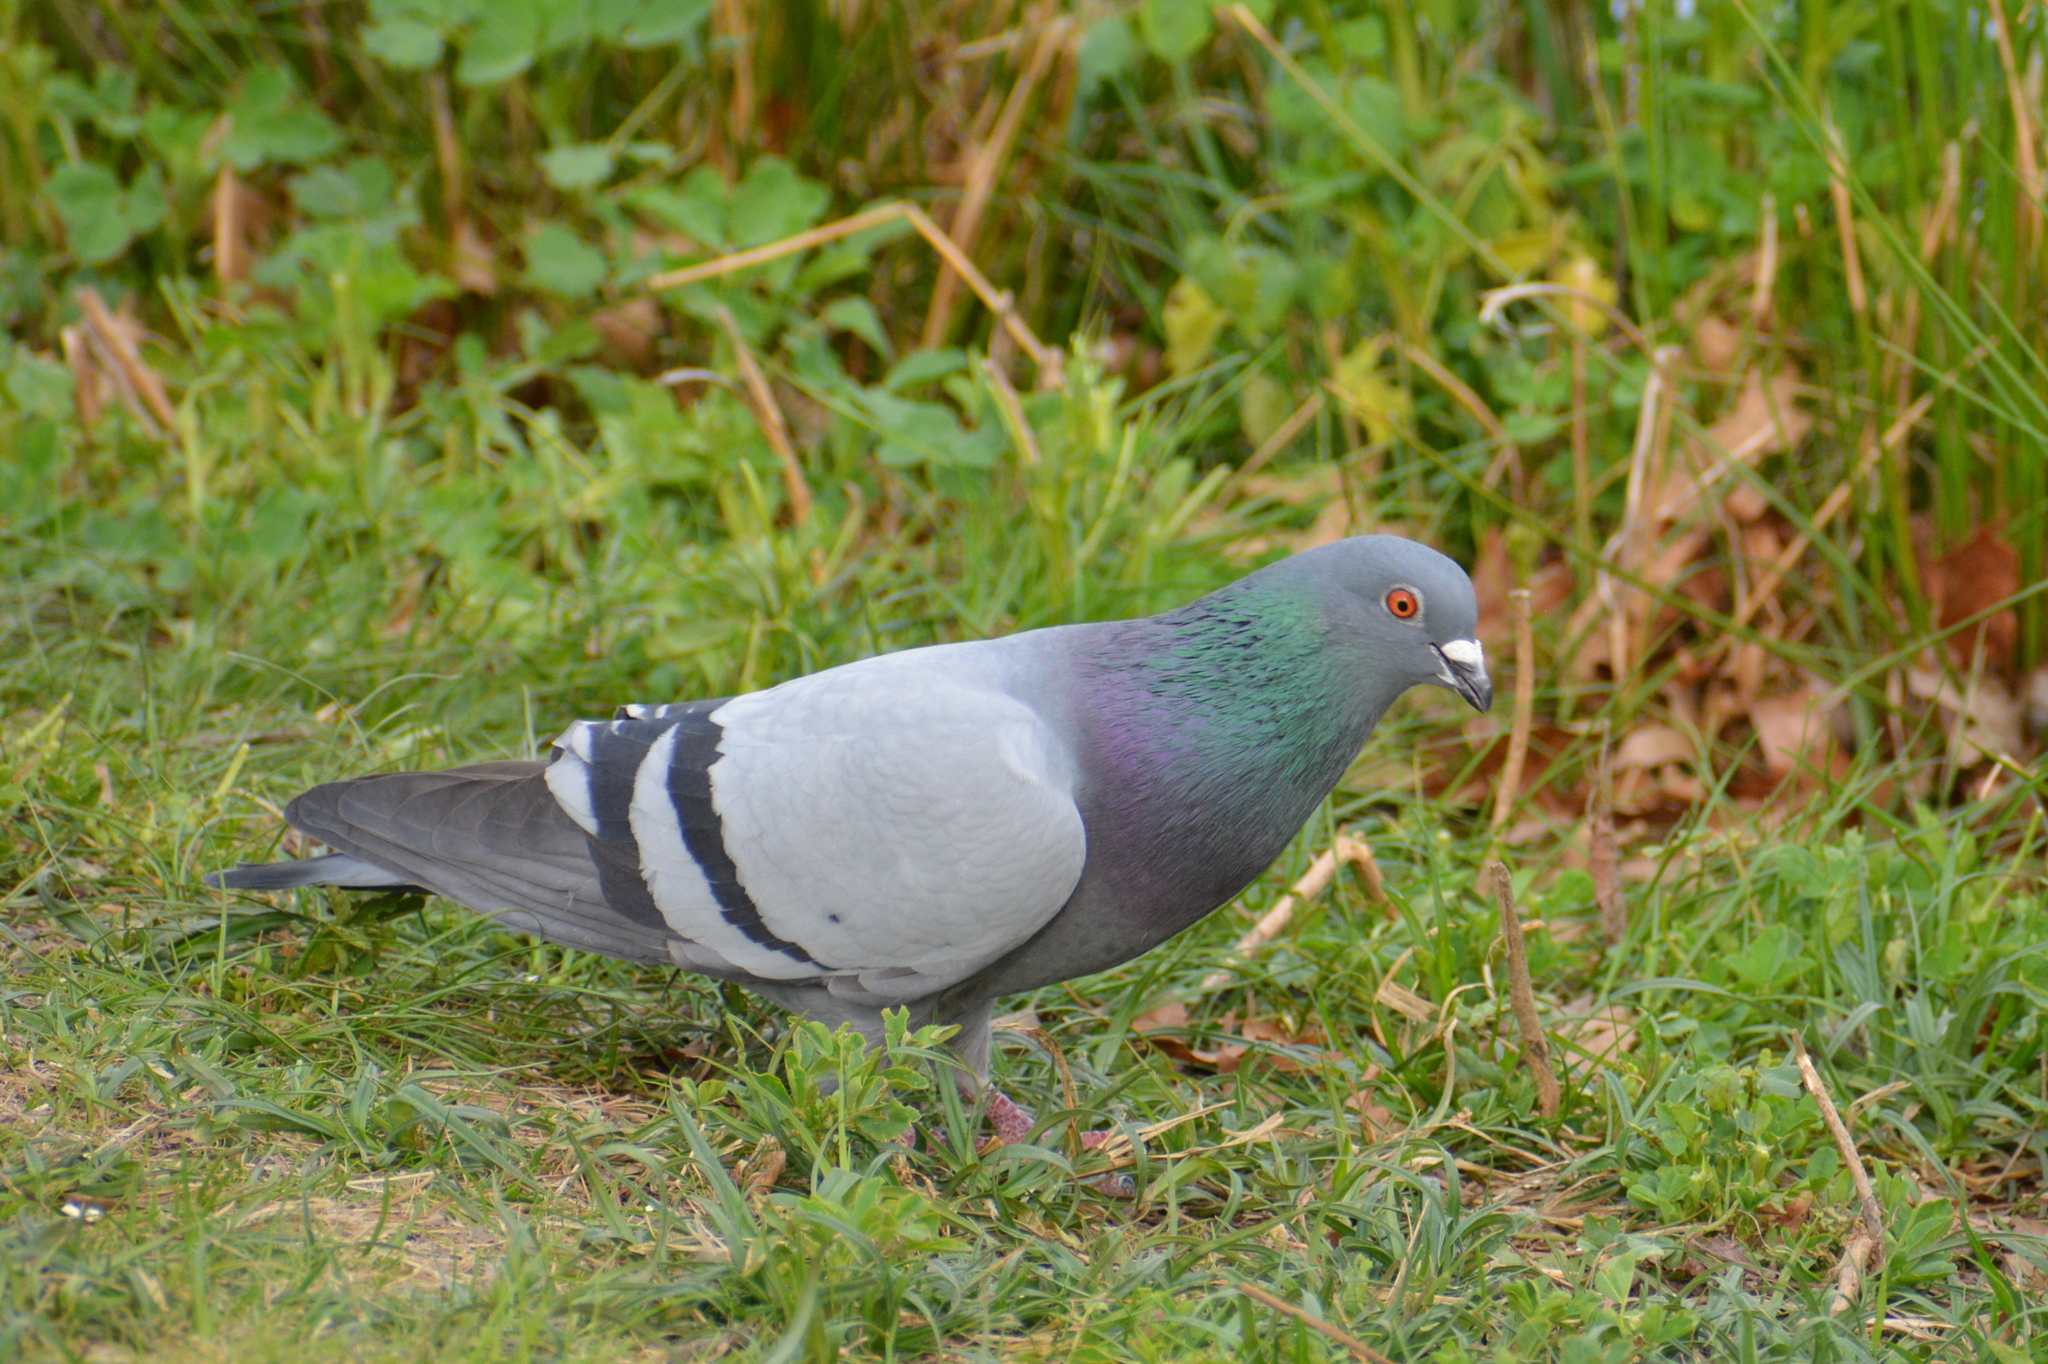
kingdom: Animalia
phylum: Chordata
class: Aves
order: Columbiformes
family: Columbidae
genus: Columba
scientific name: Columba livia
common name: Rock pigeon
